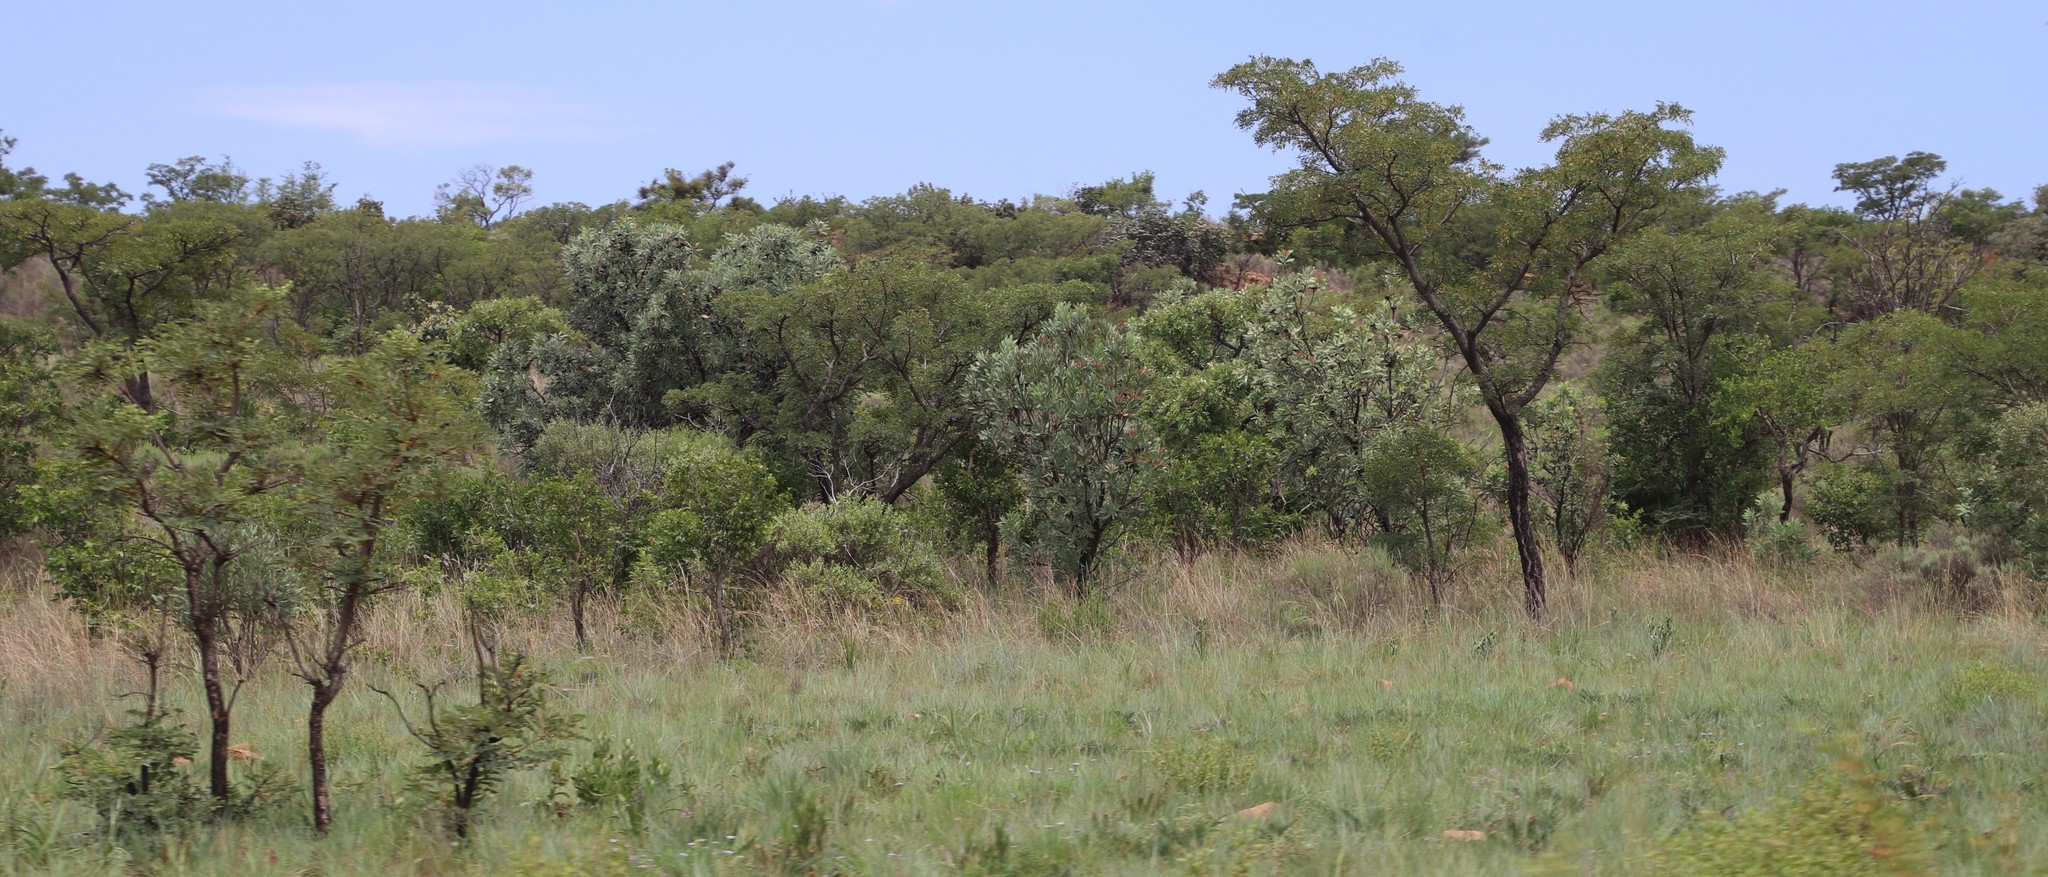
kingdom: Plantae
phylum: Tracheophyta
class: Magnoliopsida
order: Proteales
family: Proteaceae
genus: Protea
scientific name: Protea caffra
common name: Common sugarbush
